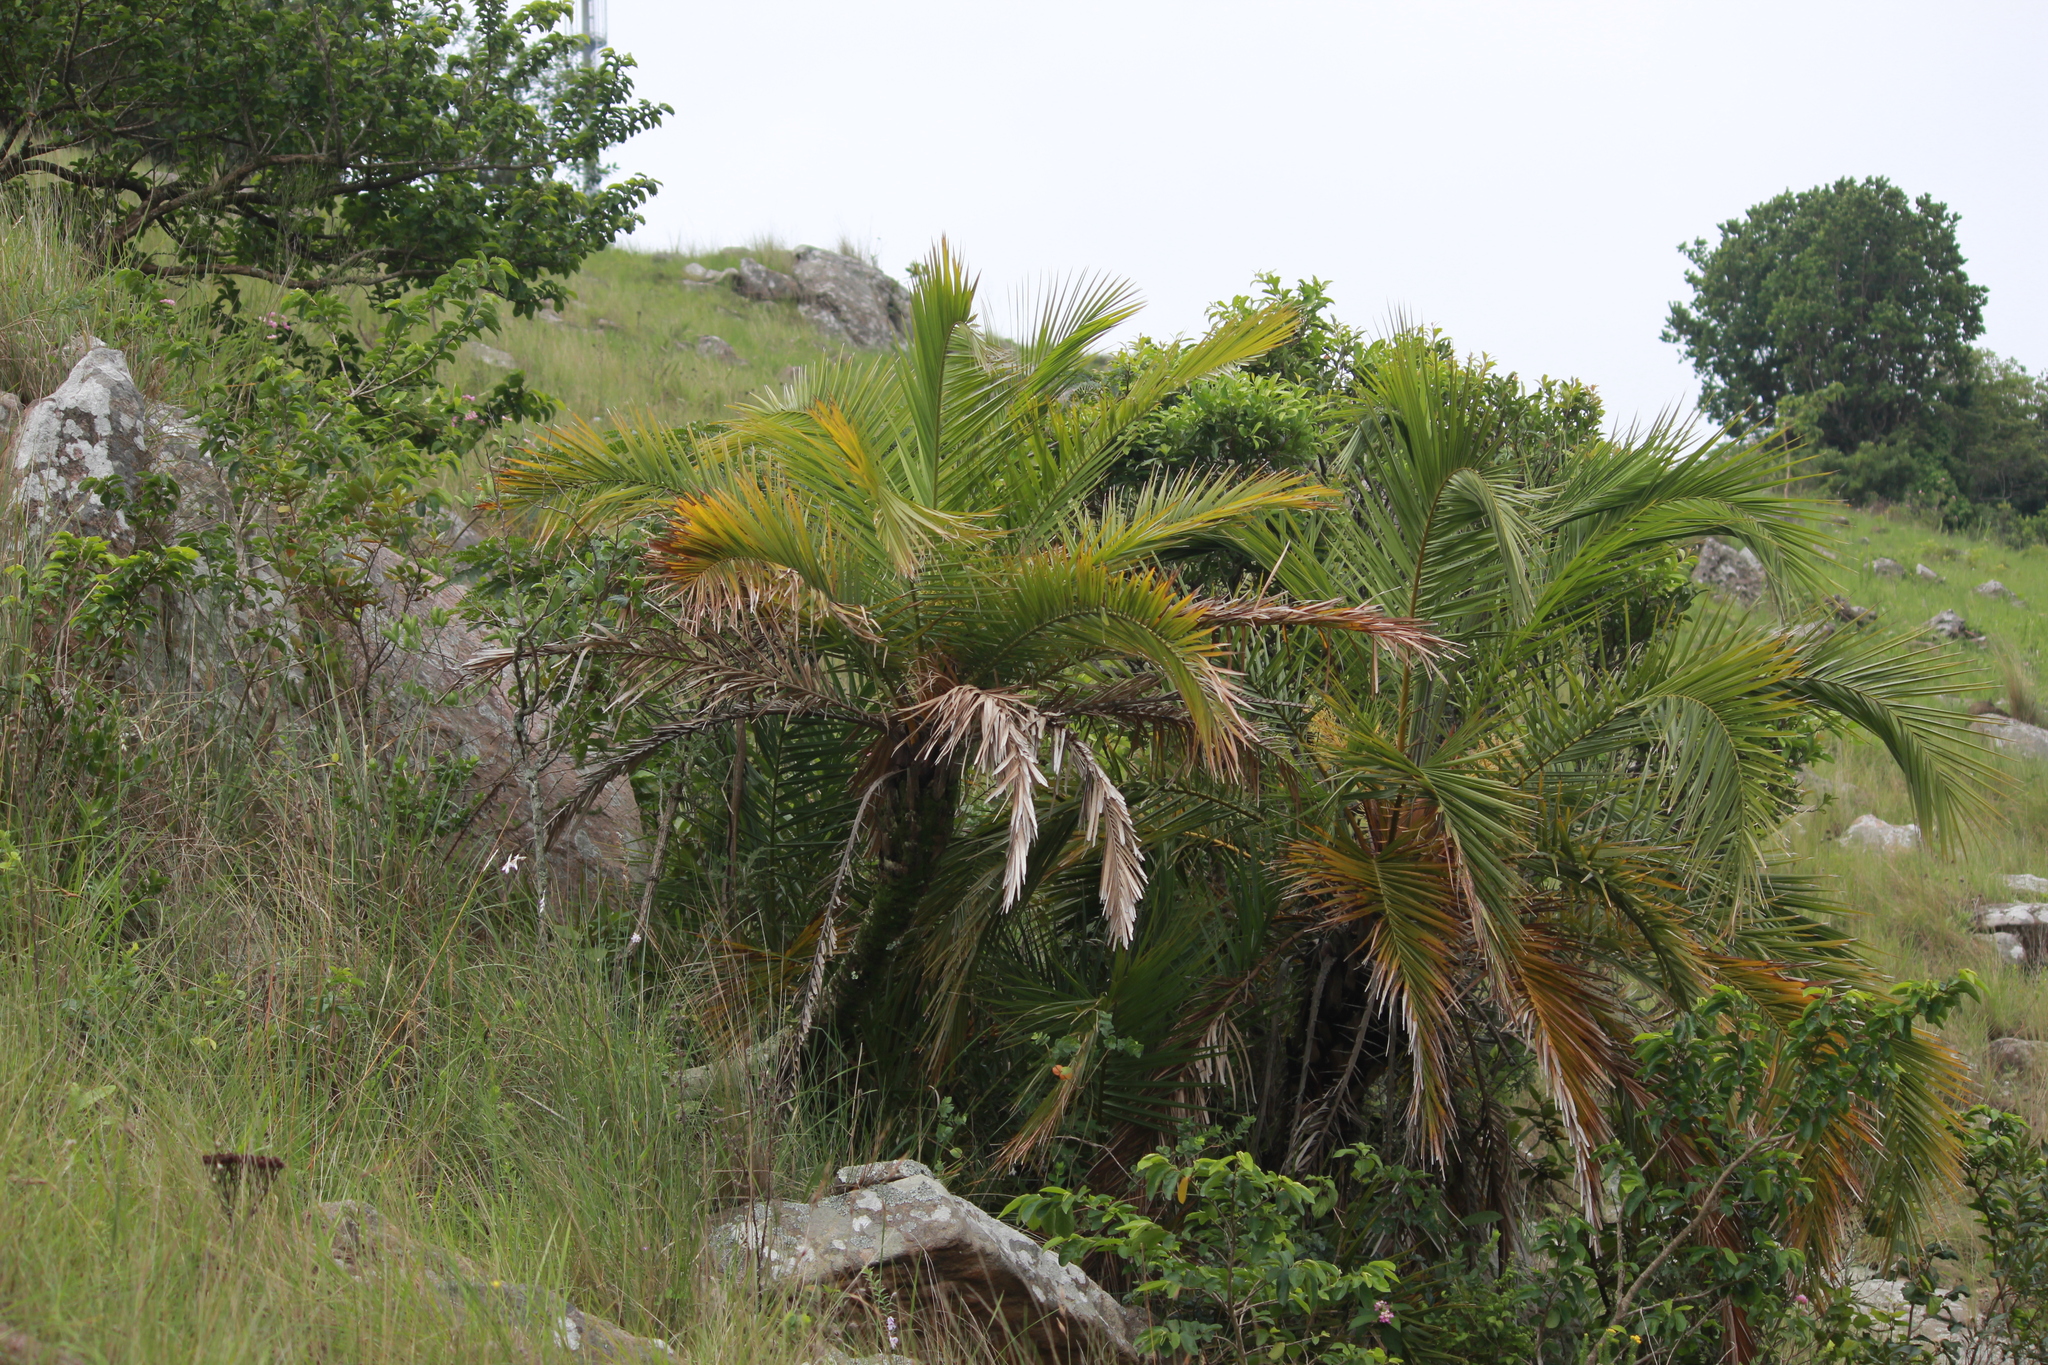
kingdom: Plantae
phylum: Tracheophyta
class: Liliopsida
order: Arecales
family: Arecaceae
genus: Phoenix
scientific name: Phoenix reclinata
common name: Senegal date palm
